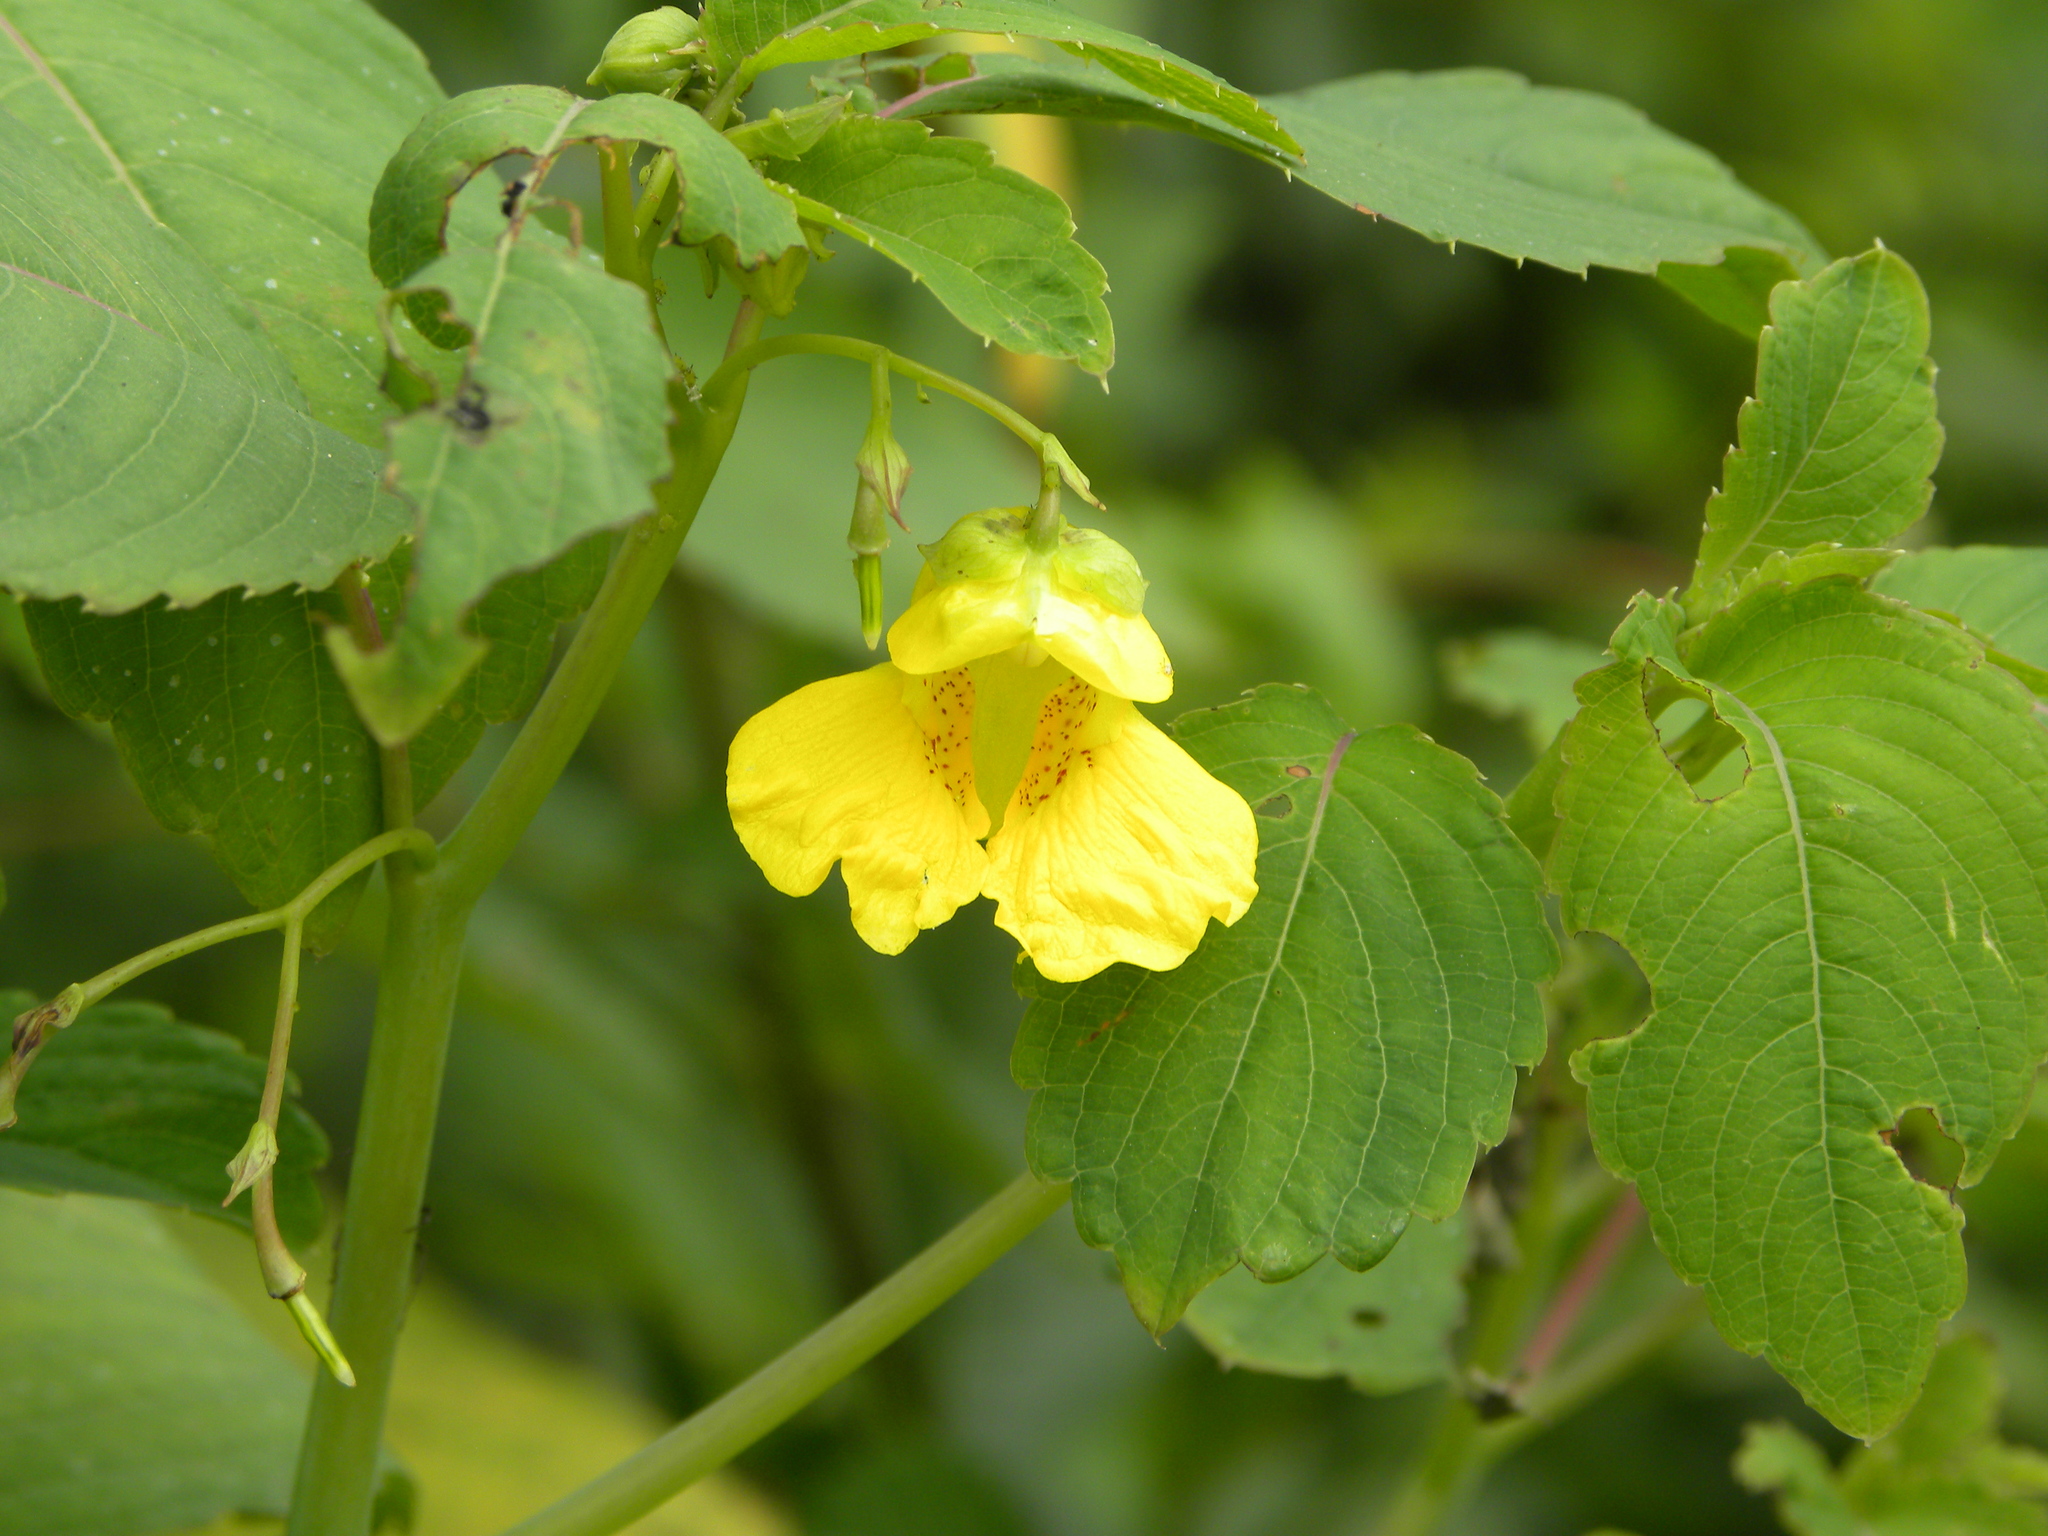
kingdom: Plantae
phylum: Tracheophyta
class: Magnoliopsida
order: Ericales
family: Balsaminaceae
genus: Impatiens
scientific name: Impatiens pallida
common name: Pale snapweed
